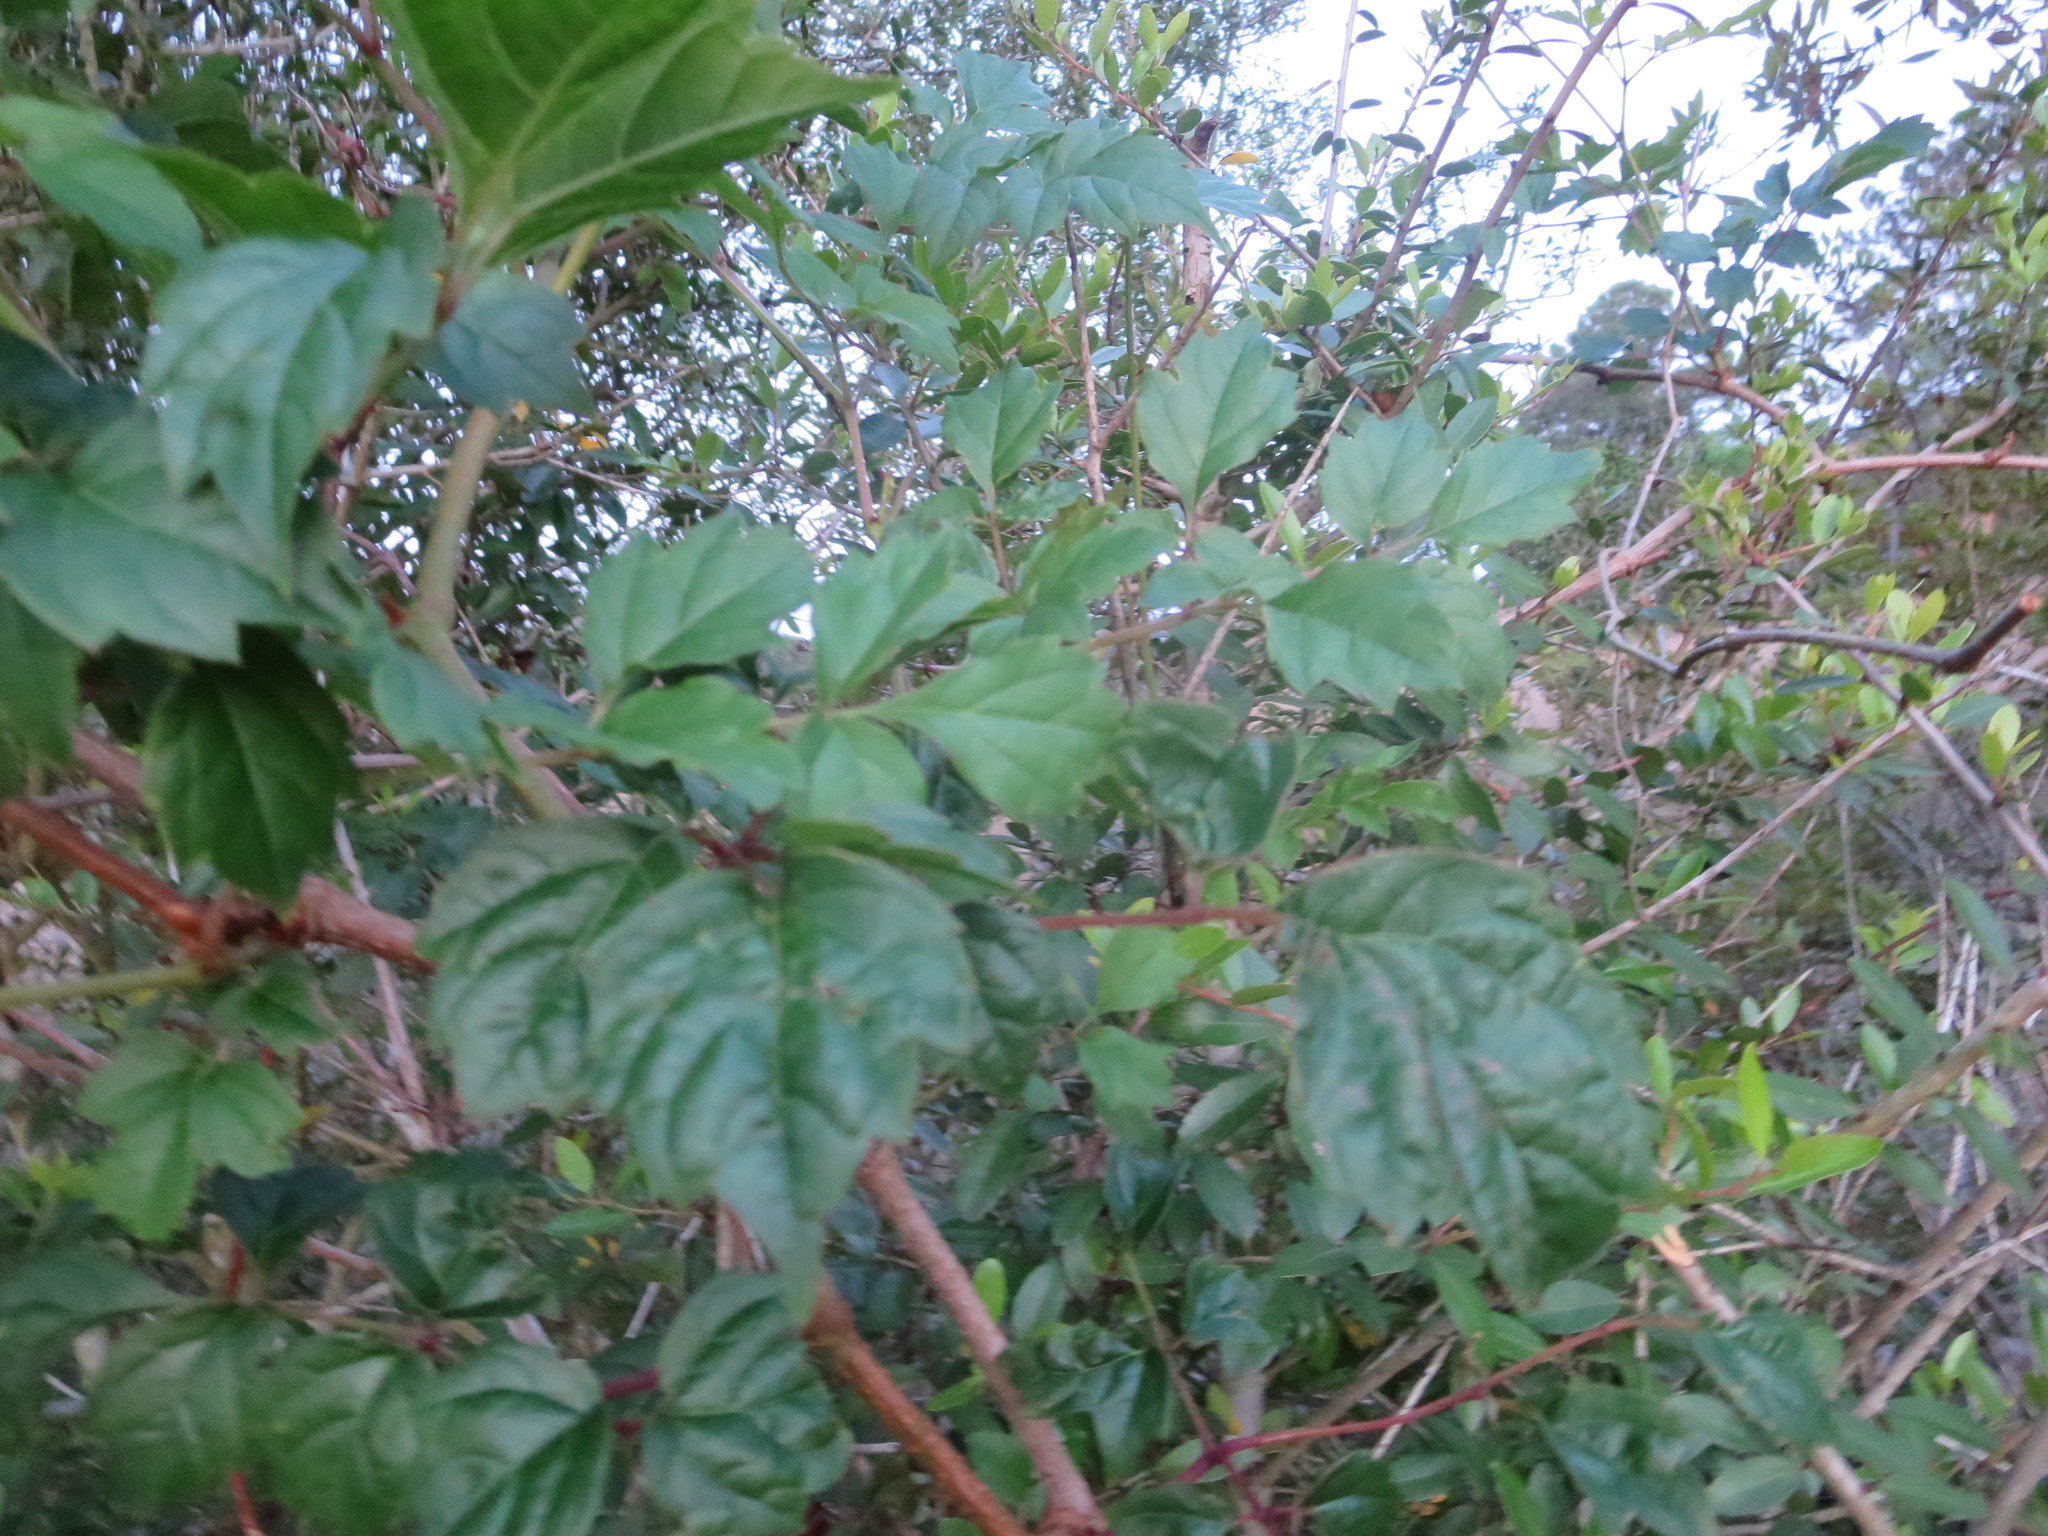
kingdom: Plantae
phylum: Tracheophyta
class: Magnoliopsida
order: Vitales
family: Vitaceae
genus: Nekemias
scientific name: Nekemias arborea
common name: Peppervine
